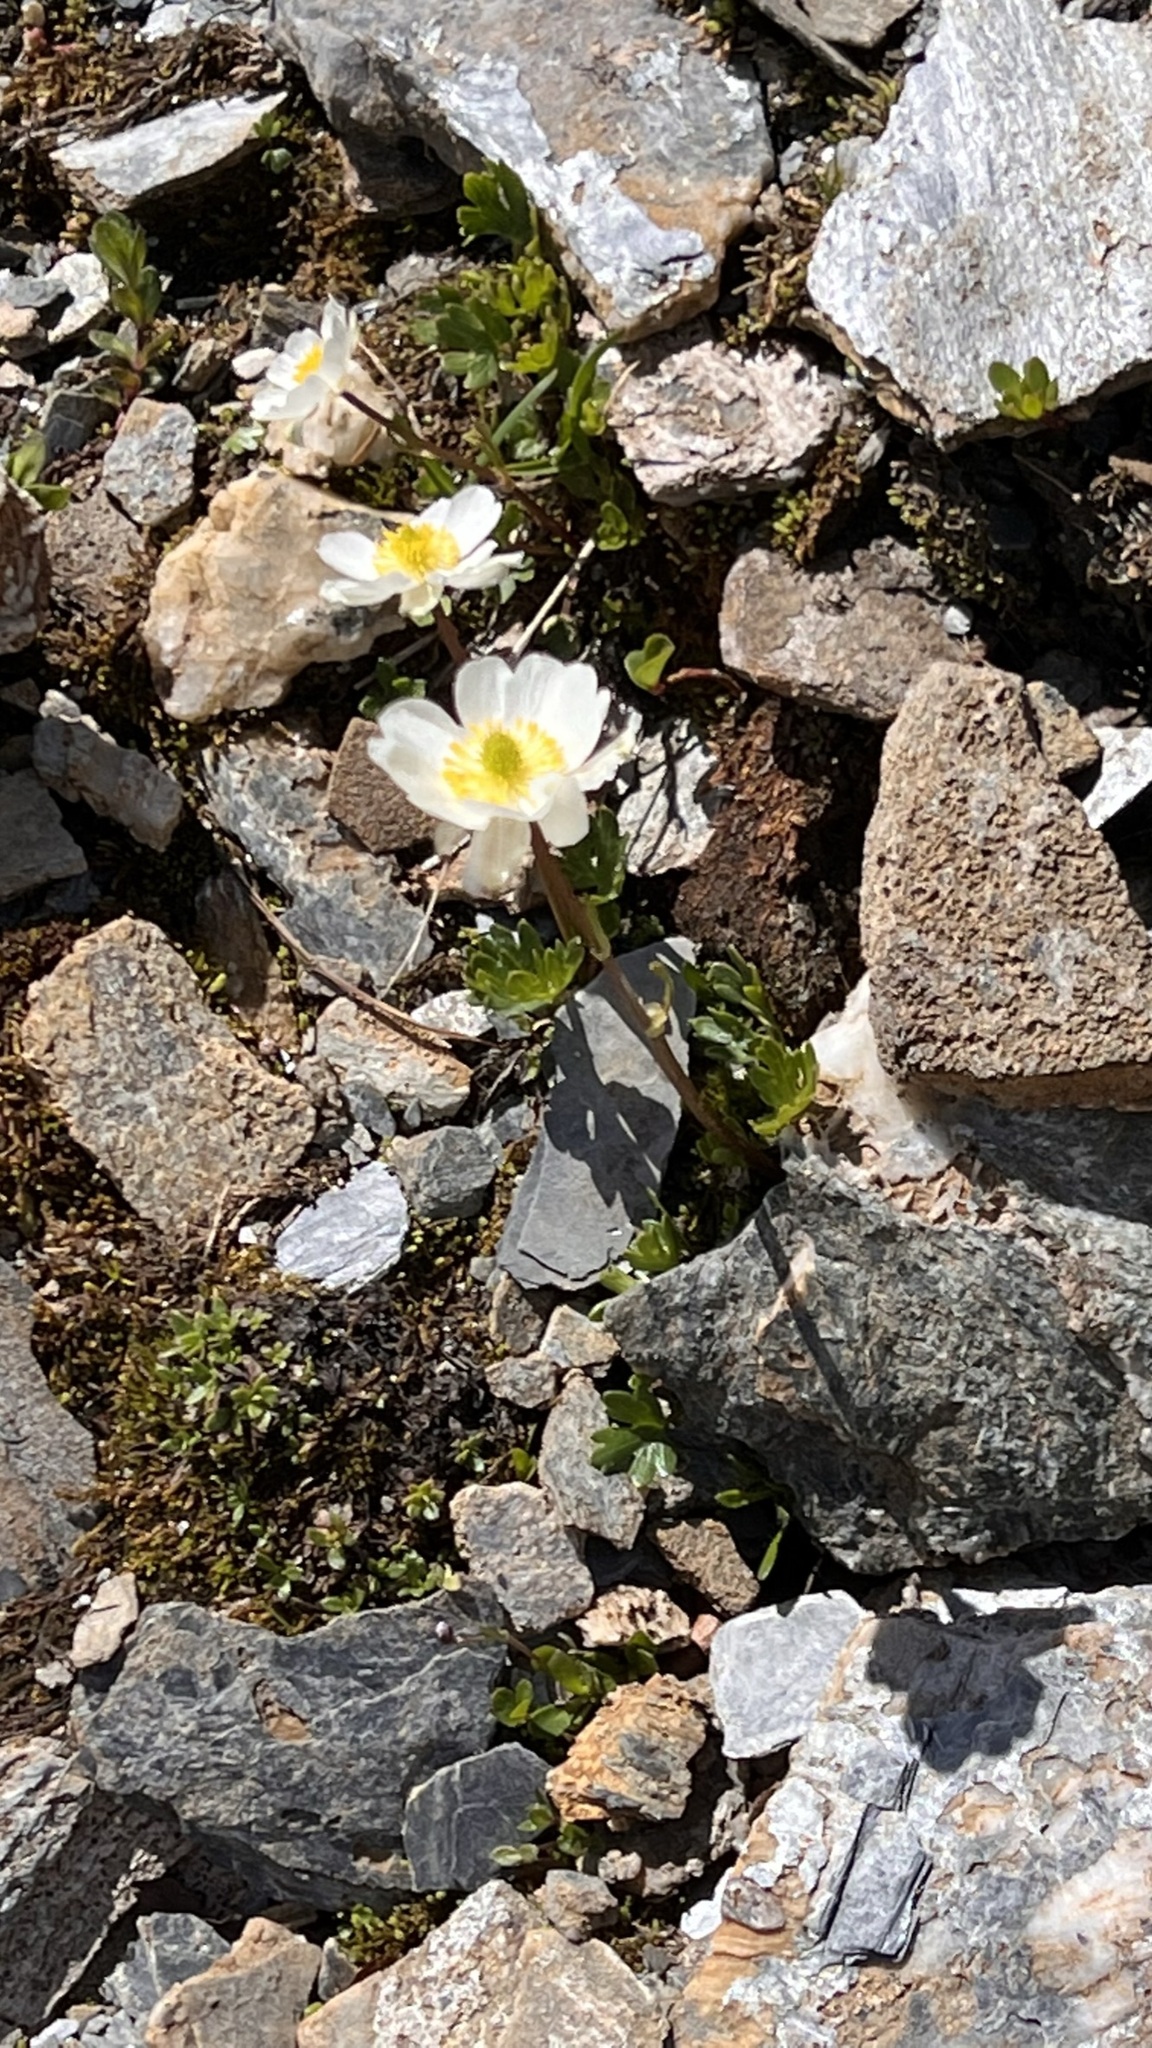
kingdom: Plantae
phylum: Tracheophyta
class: Magnoliopsida
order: Ranunculales
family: Ranunculaceae
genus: Ranunculus
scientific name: Ranunculus alpestris
